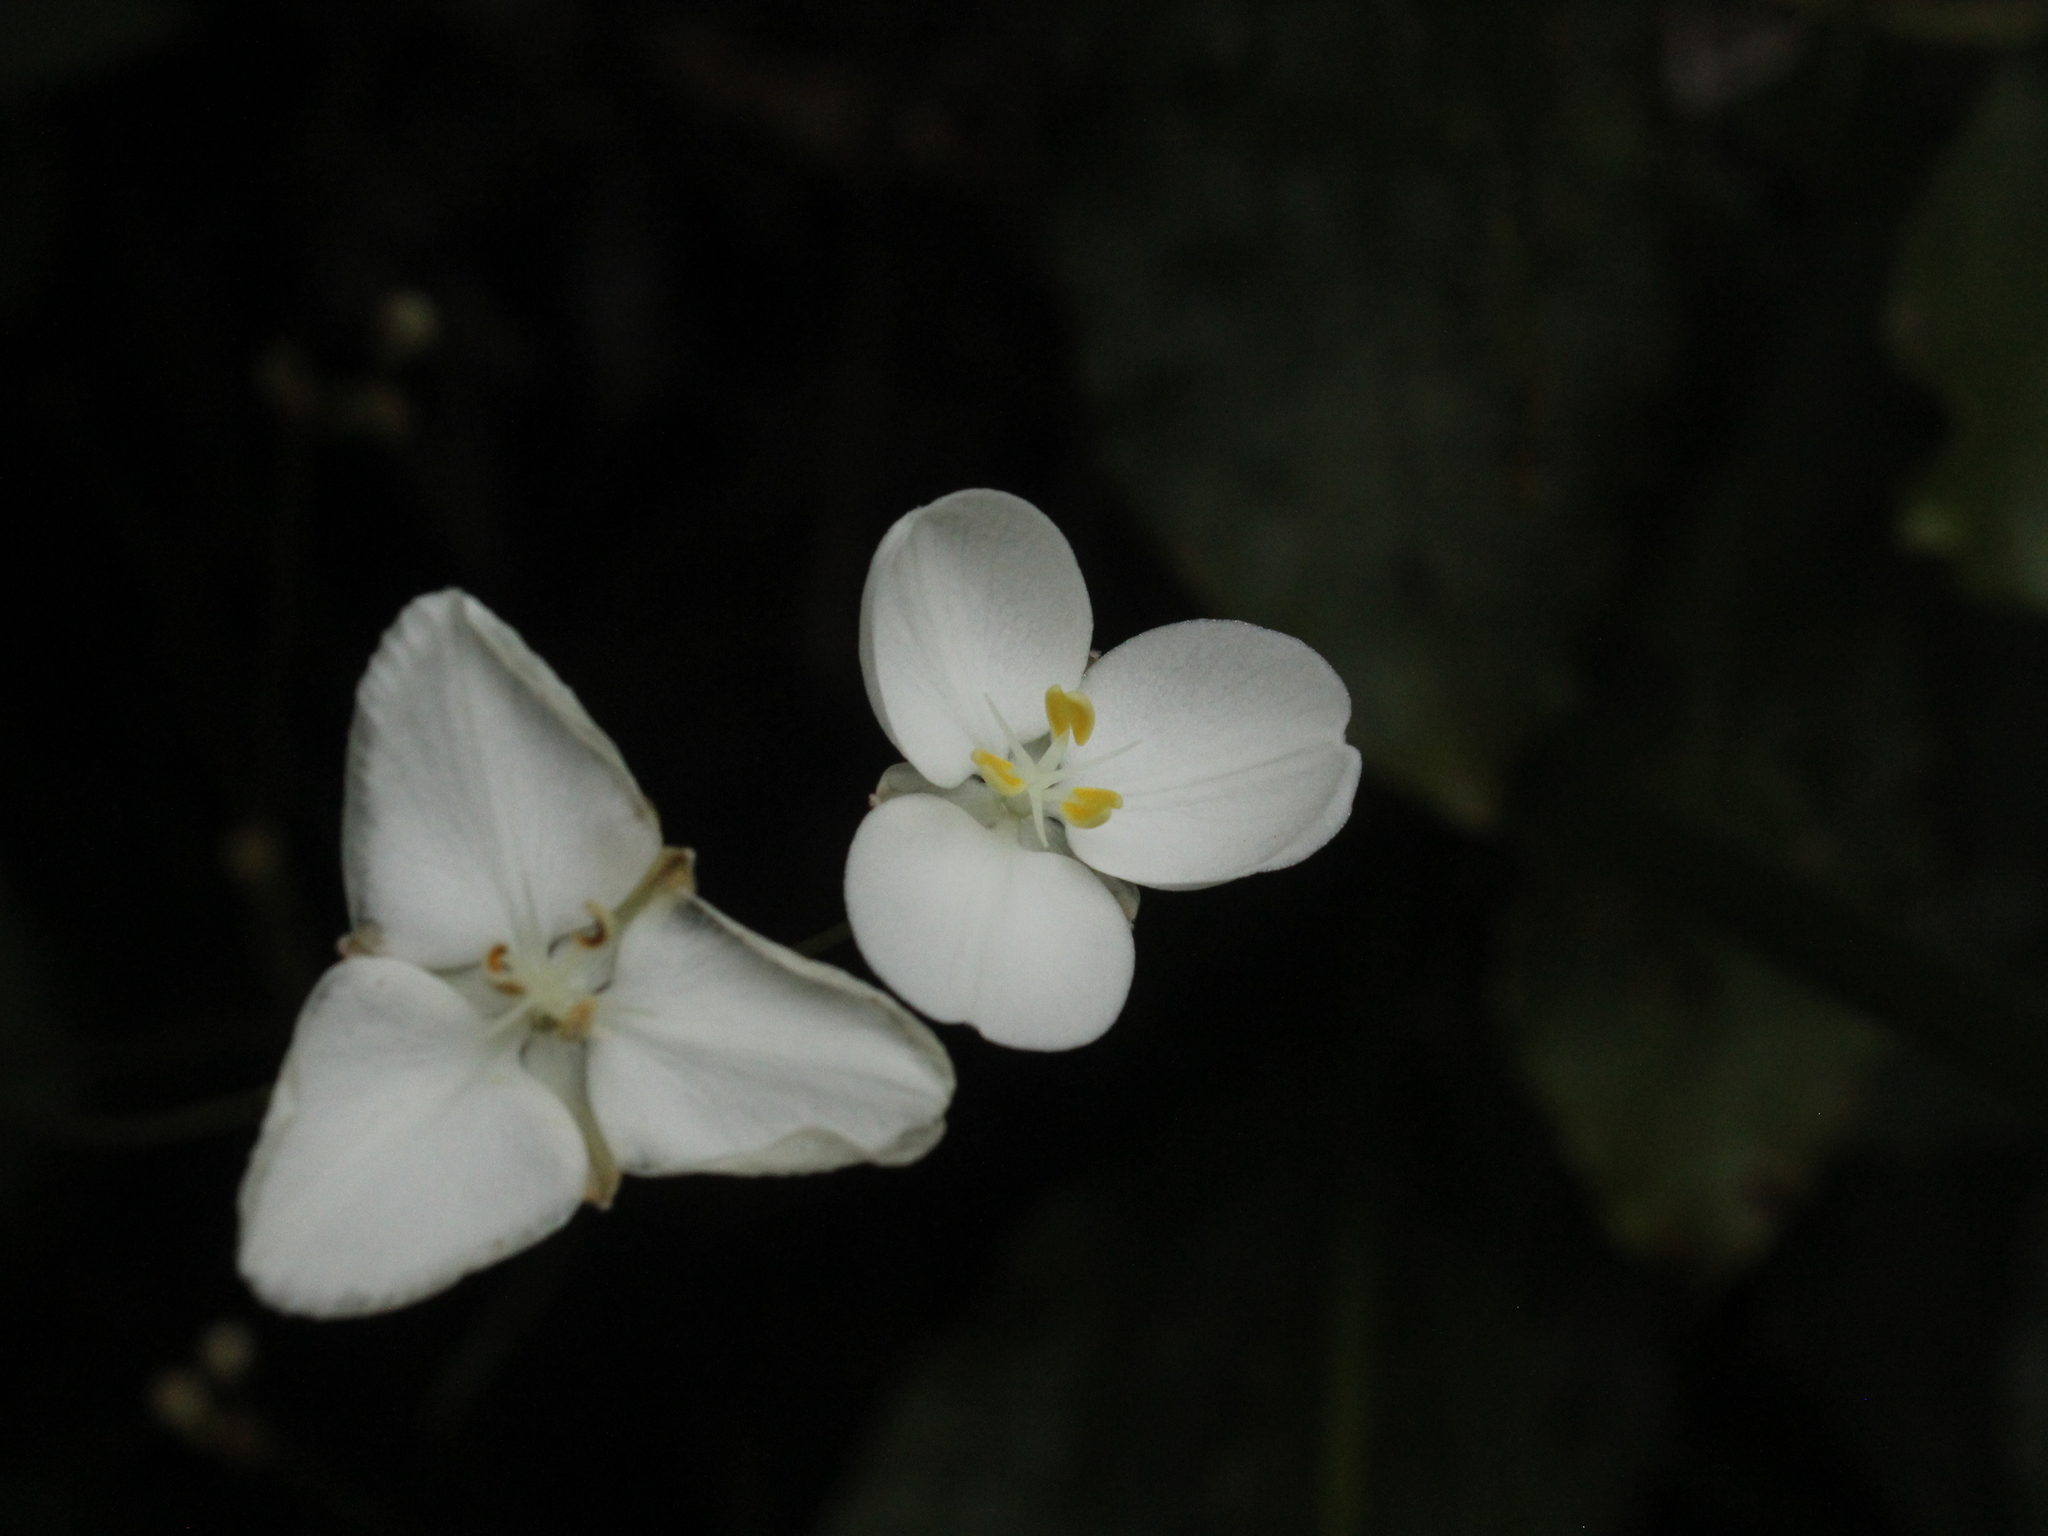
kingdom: Plantae
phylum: Tracheophyta
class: Liliopsida
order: Asparagales
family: Iridaceae
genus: Libertia
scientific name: Libertia ixioides
